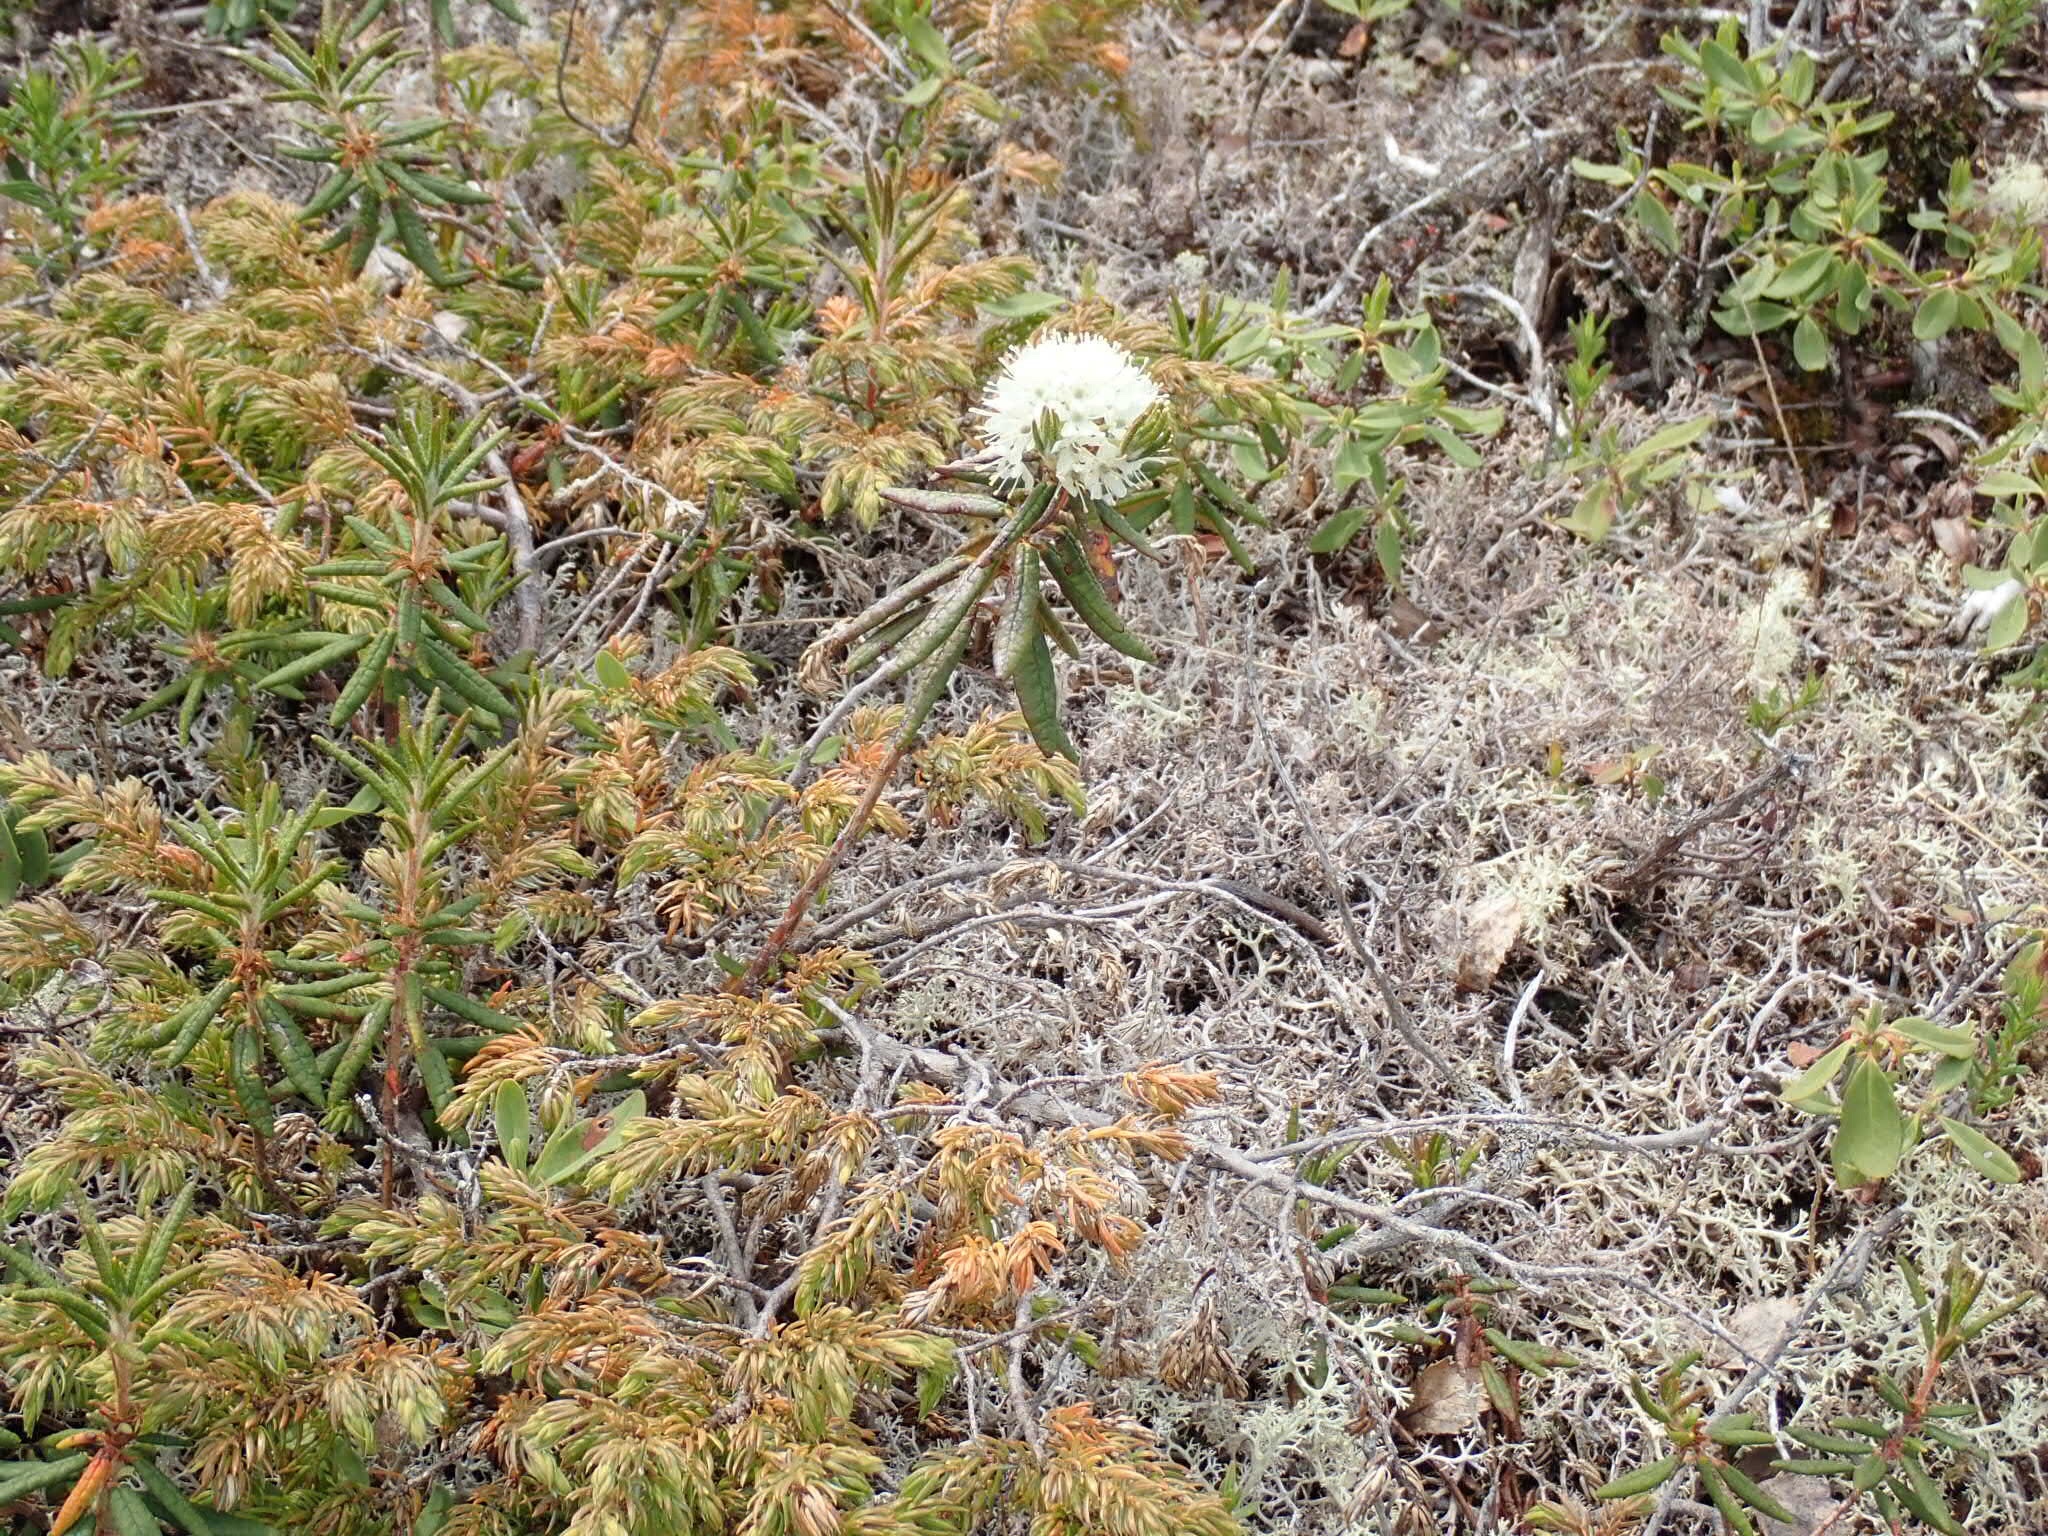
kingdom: Plantae
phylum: Tracheophyta
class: Magnoliopsida
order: Ericales
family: Ericaceae
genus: Rhododendron
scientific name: Rhododendron groenlandicum
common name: Bog labrador tea
